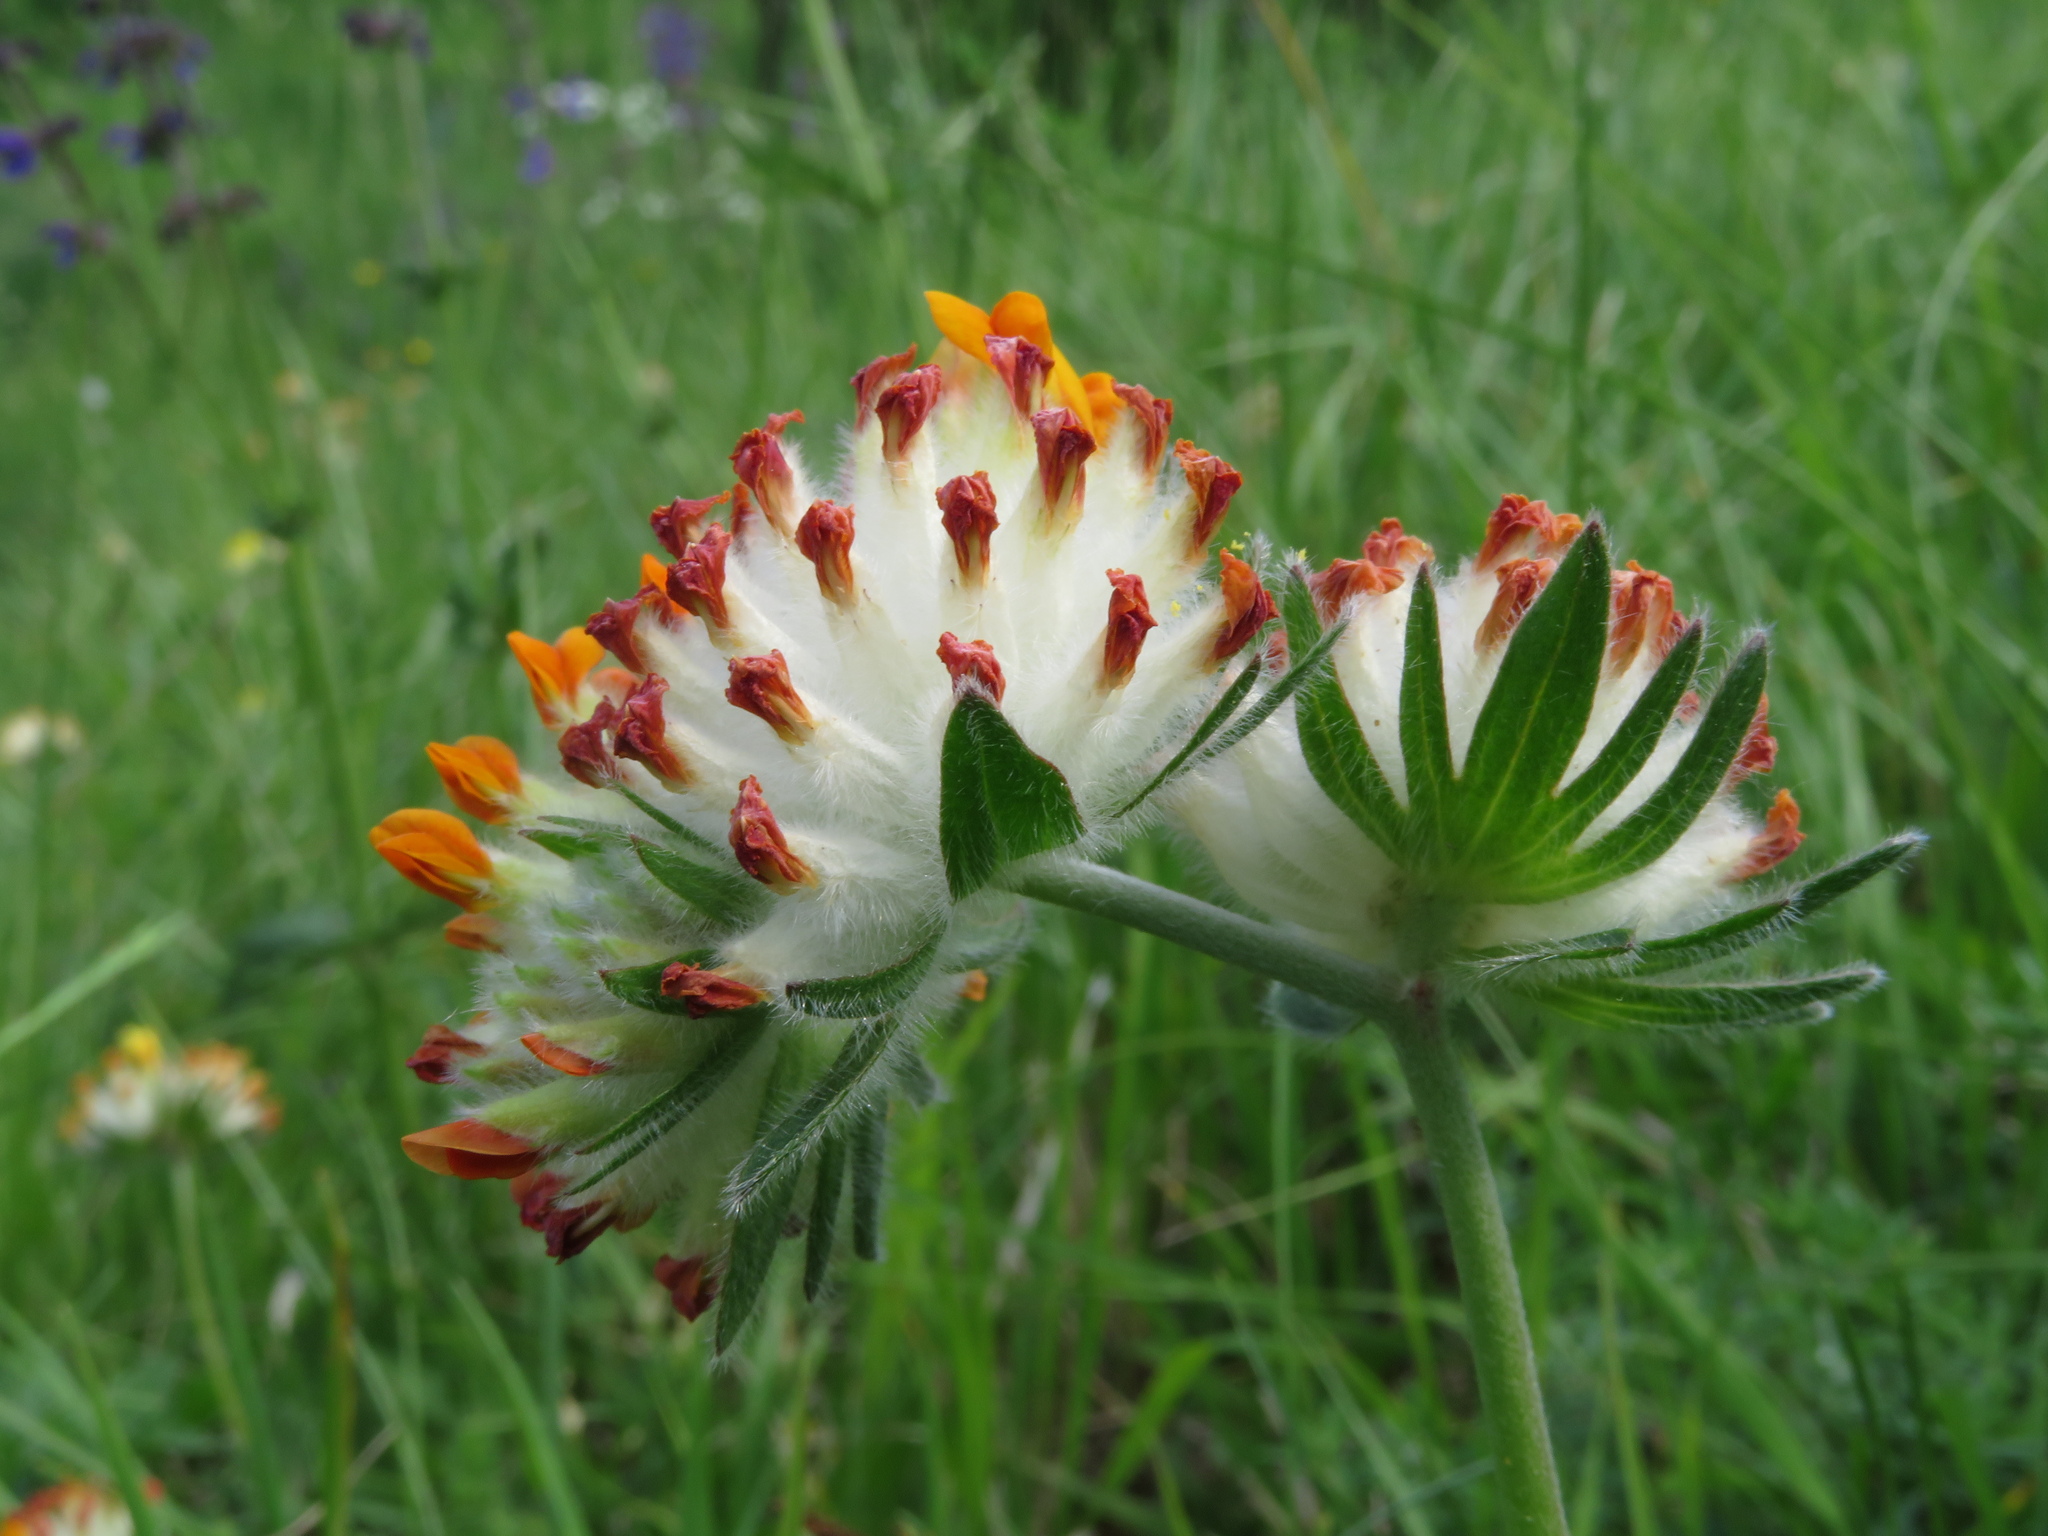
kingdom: Plantae
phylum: Tracheophyta
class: Magnoliopsida
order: Fabales
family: Fabaceae
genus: Anthyllis
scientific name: Anthyllis vulneraria
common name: Kidney vetch
